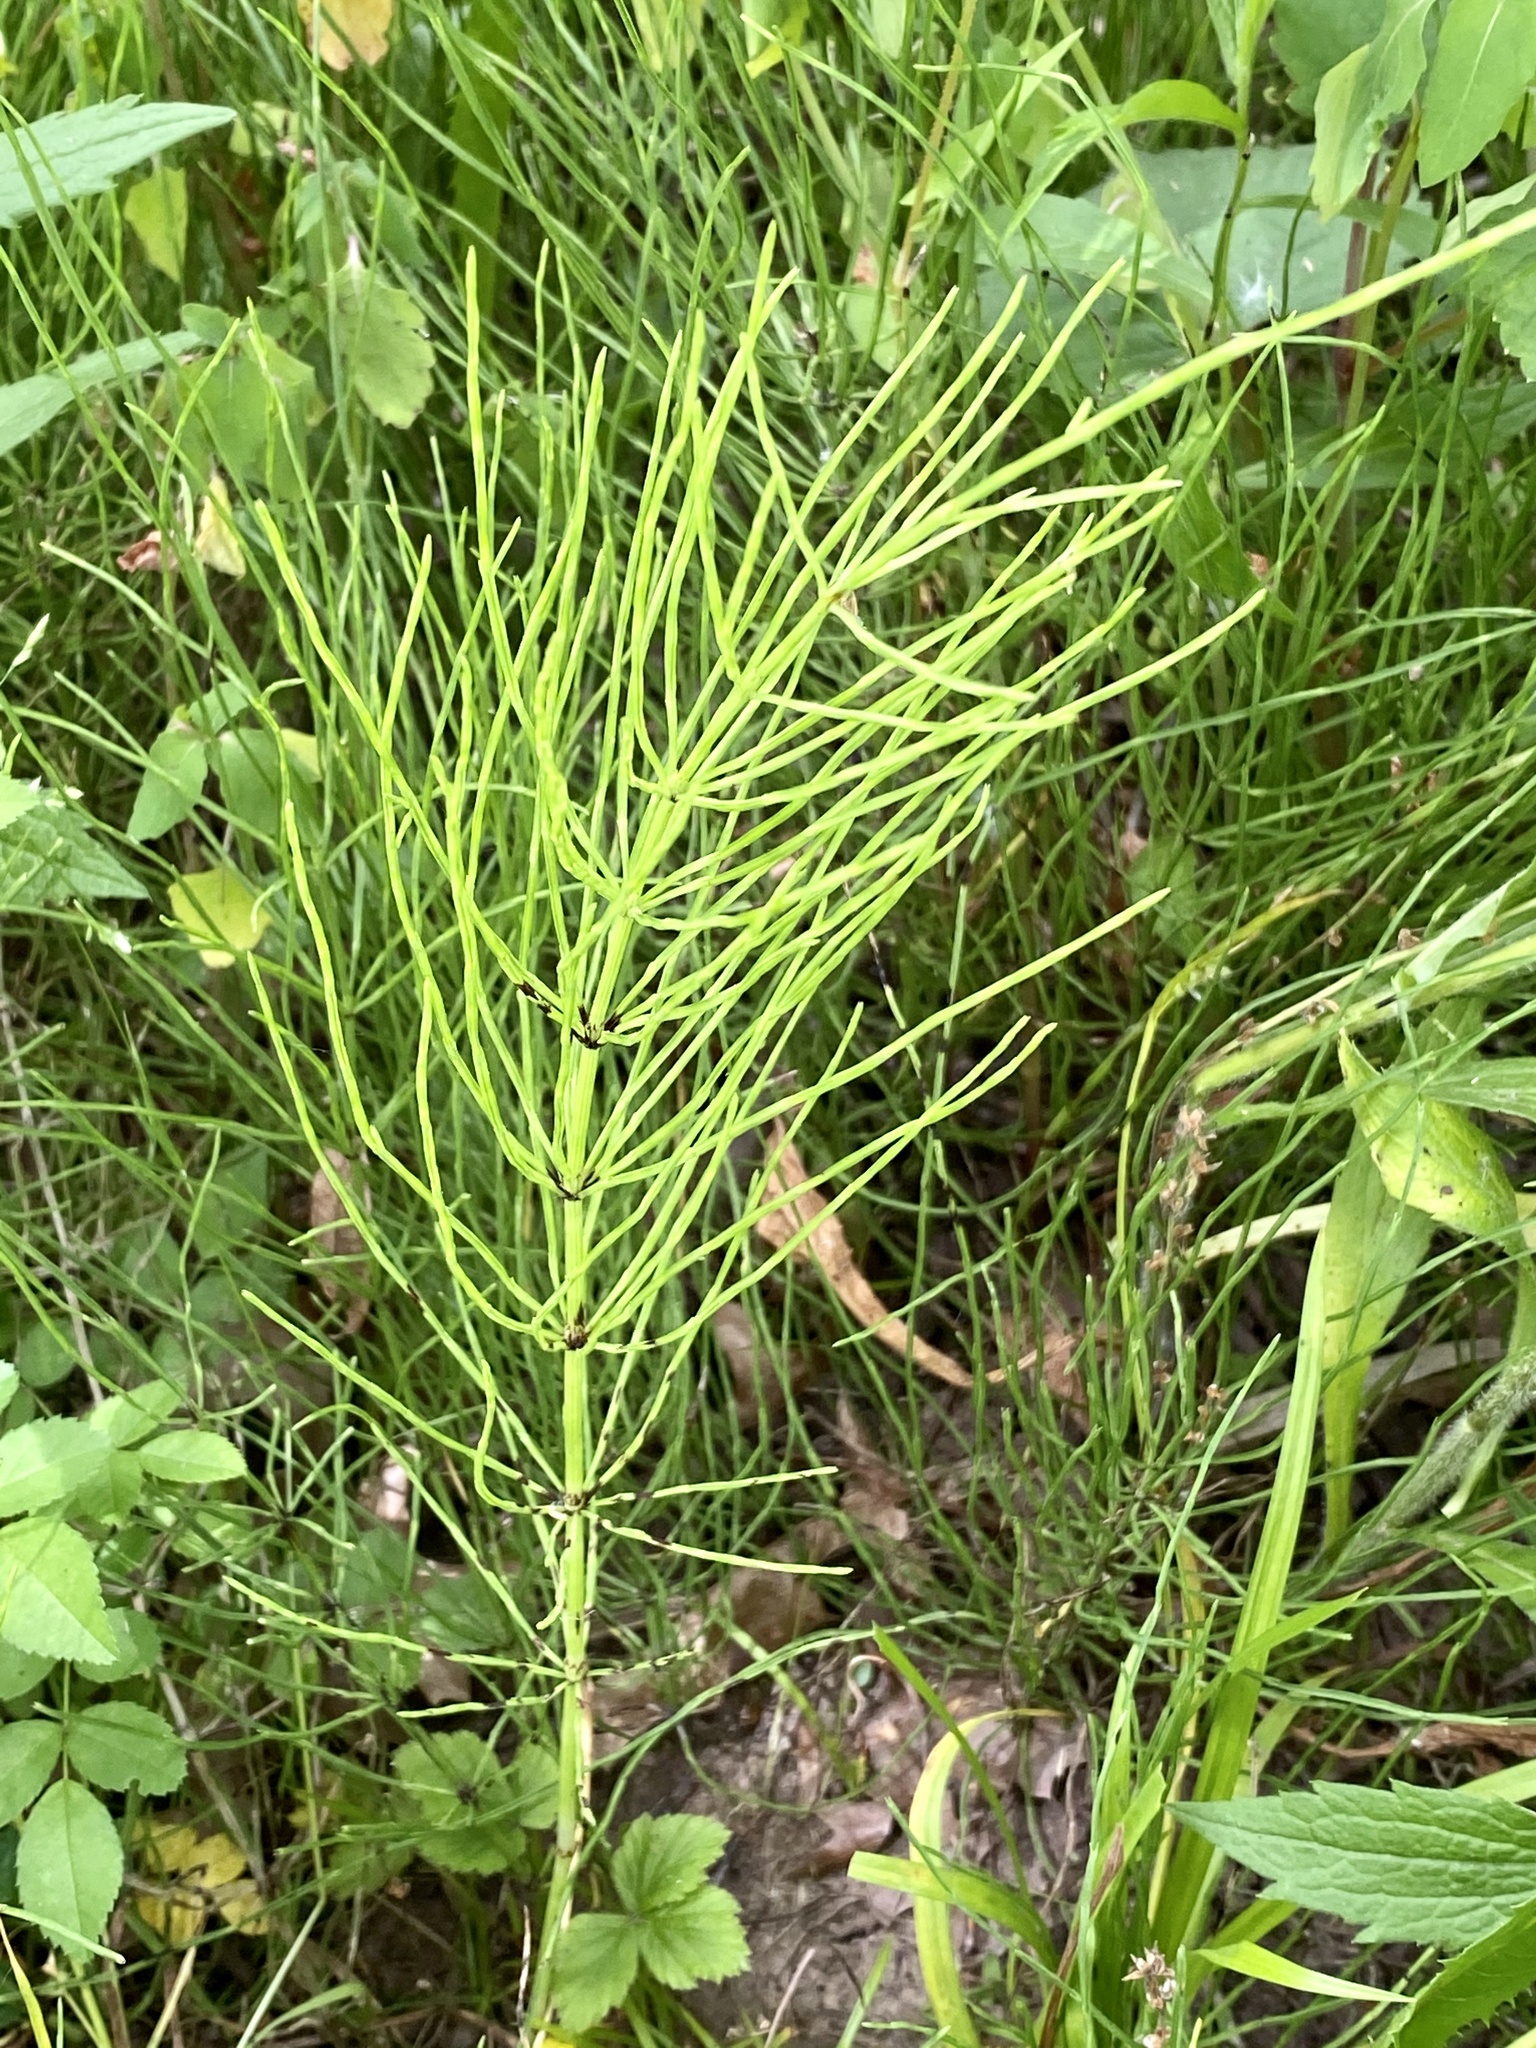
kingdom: Plantae
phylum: Tracheophyta
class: Polypodiopsida
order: Equisetales
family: Equisetaceae
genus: Equisetum
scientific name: Equisetum arvense
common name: Field horsetail
